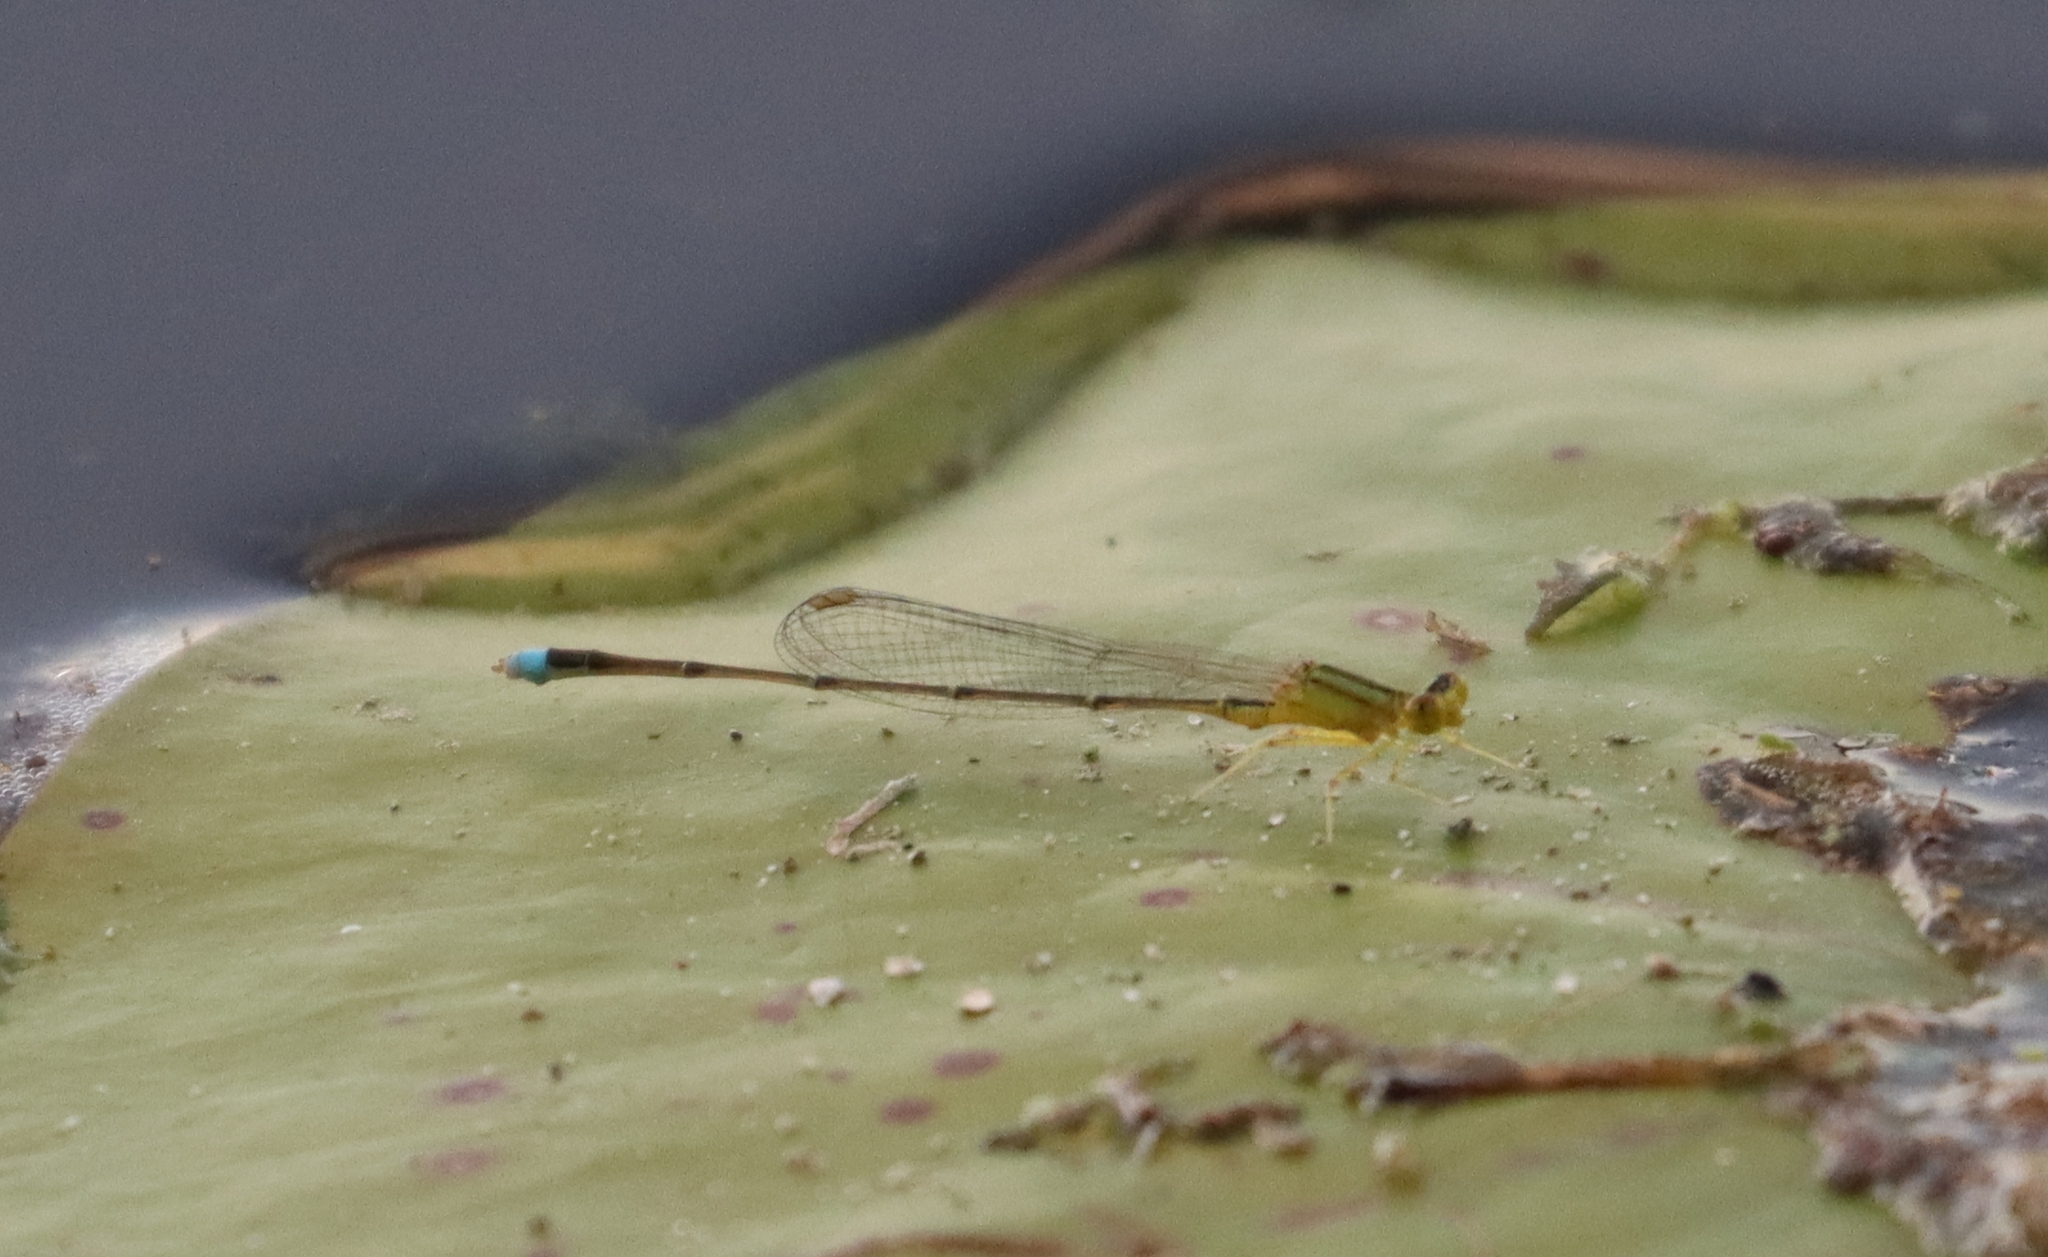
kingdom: Animalia
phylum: Arthropoda
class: Insecta
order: Odonata
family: Coenagrionidae
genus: Enallagma
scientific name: Enallagma vesperum
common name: Vesper bluet
